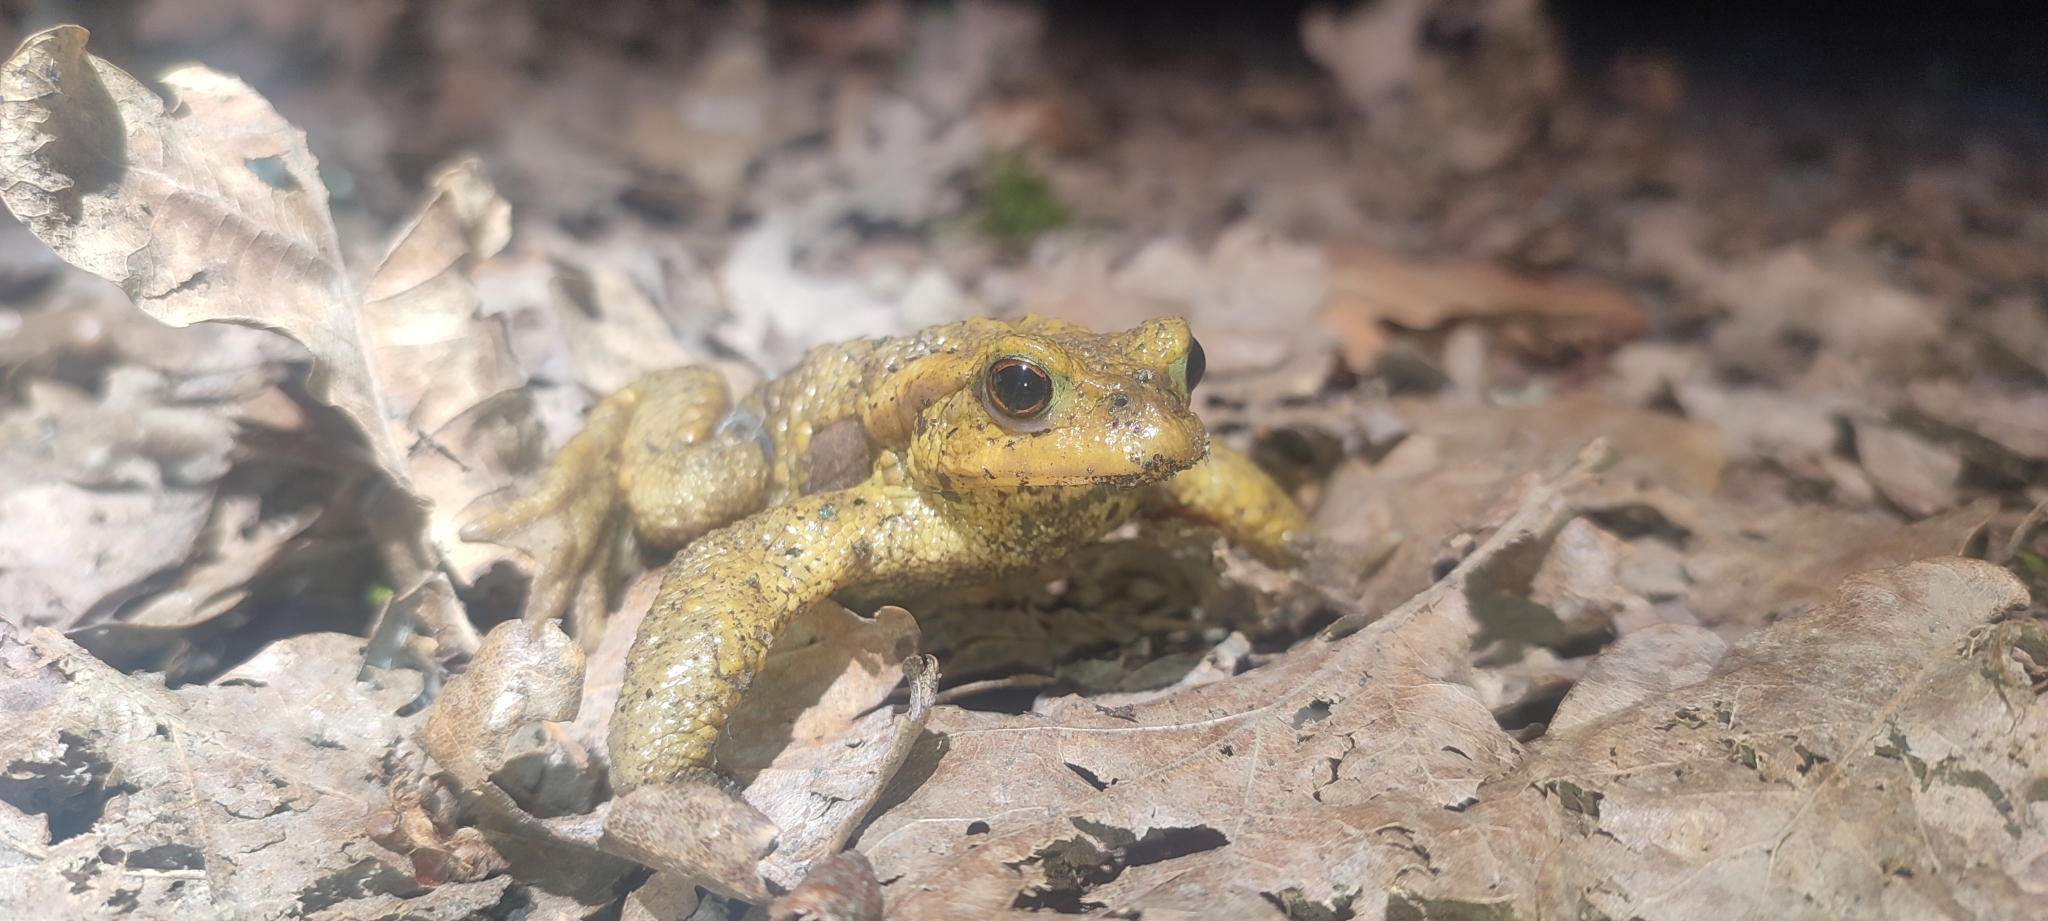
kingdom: Animalia
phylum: Chordata
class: Amphibia
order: Anura
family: Bufonidae
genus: Bufo
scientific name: Bufo spinosus
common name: Western common toad
